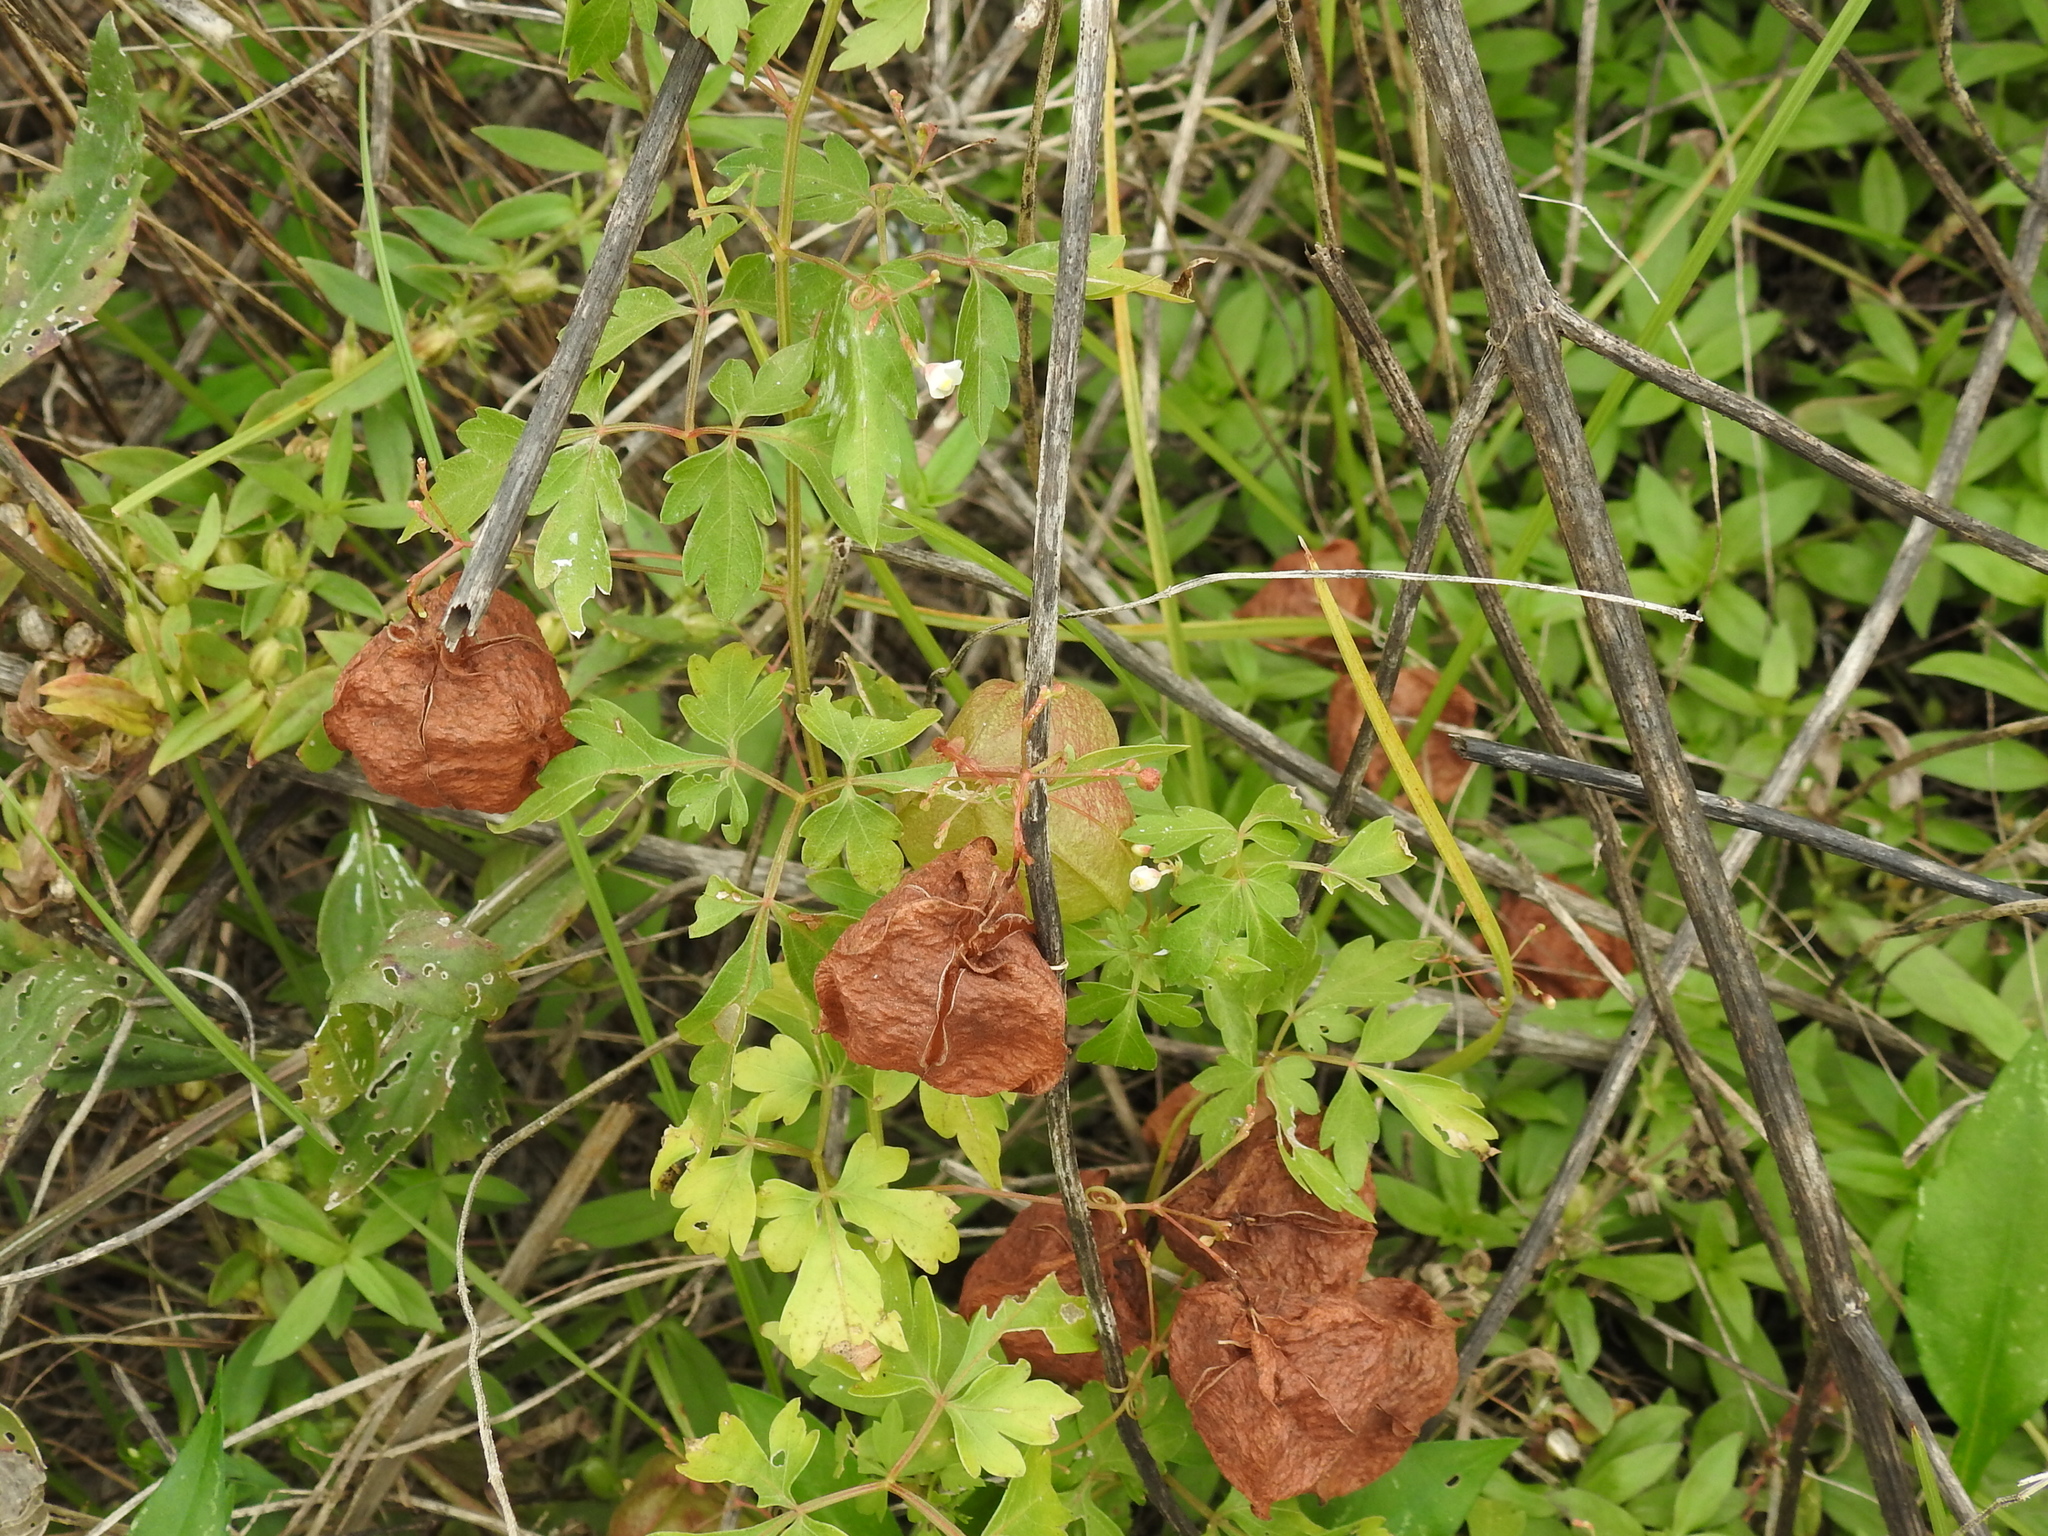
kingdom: Plantae
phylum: Tracheophyta
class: Magnoliopsida
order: Sapindales
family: Sapindaceae
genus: Cardiospermum
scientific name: Cardiospermum halicacabum
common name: Balloon vine
